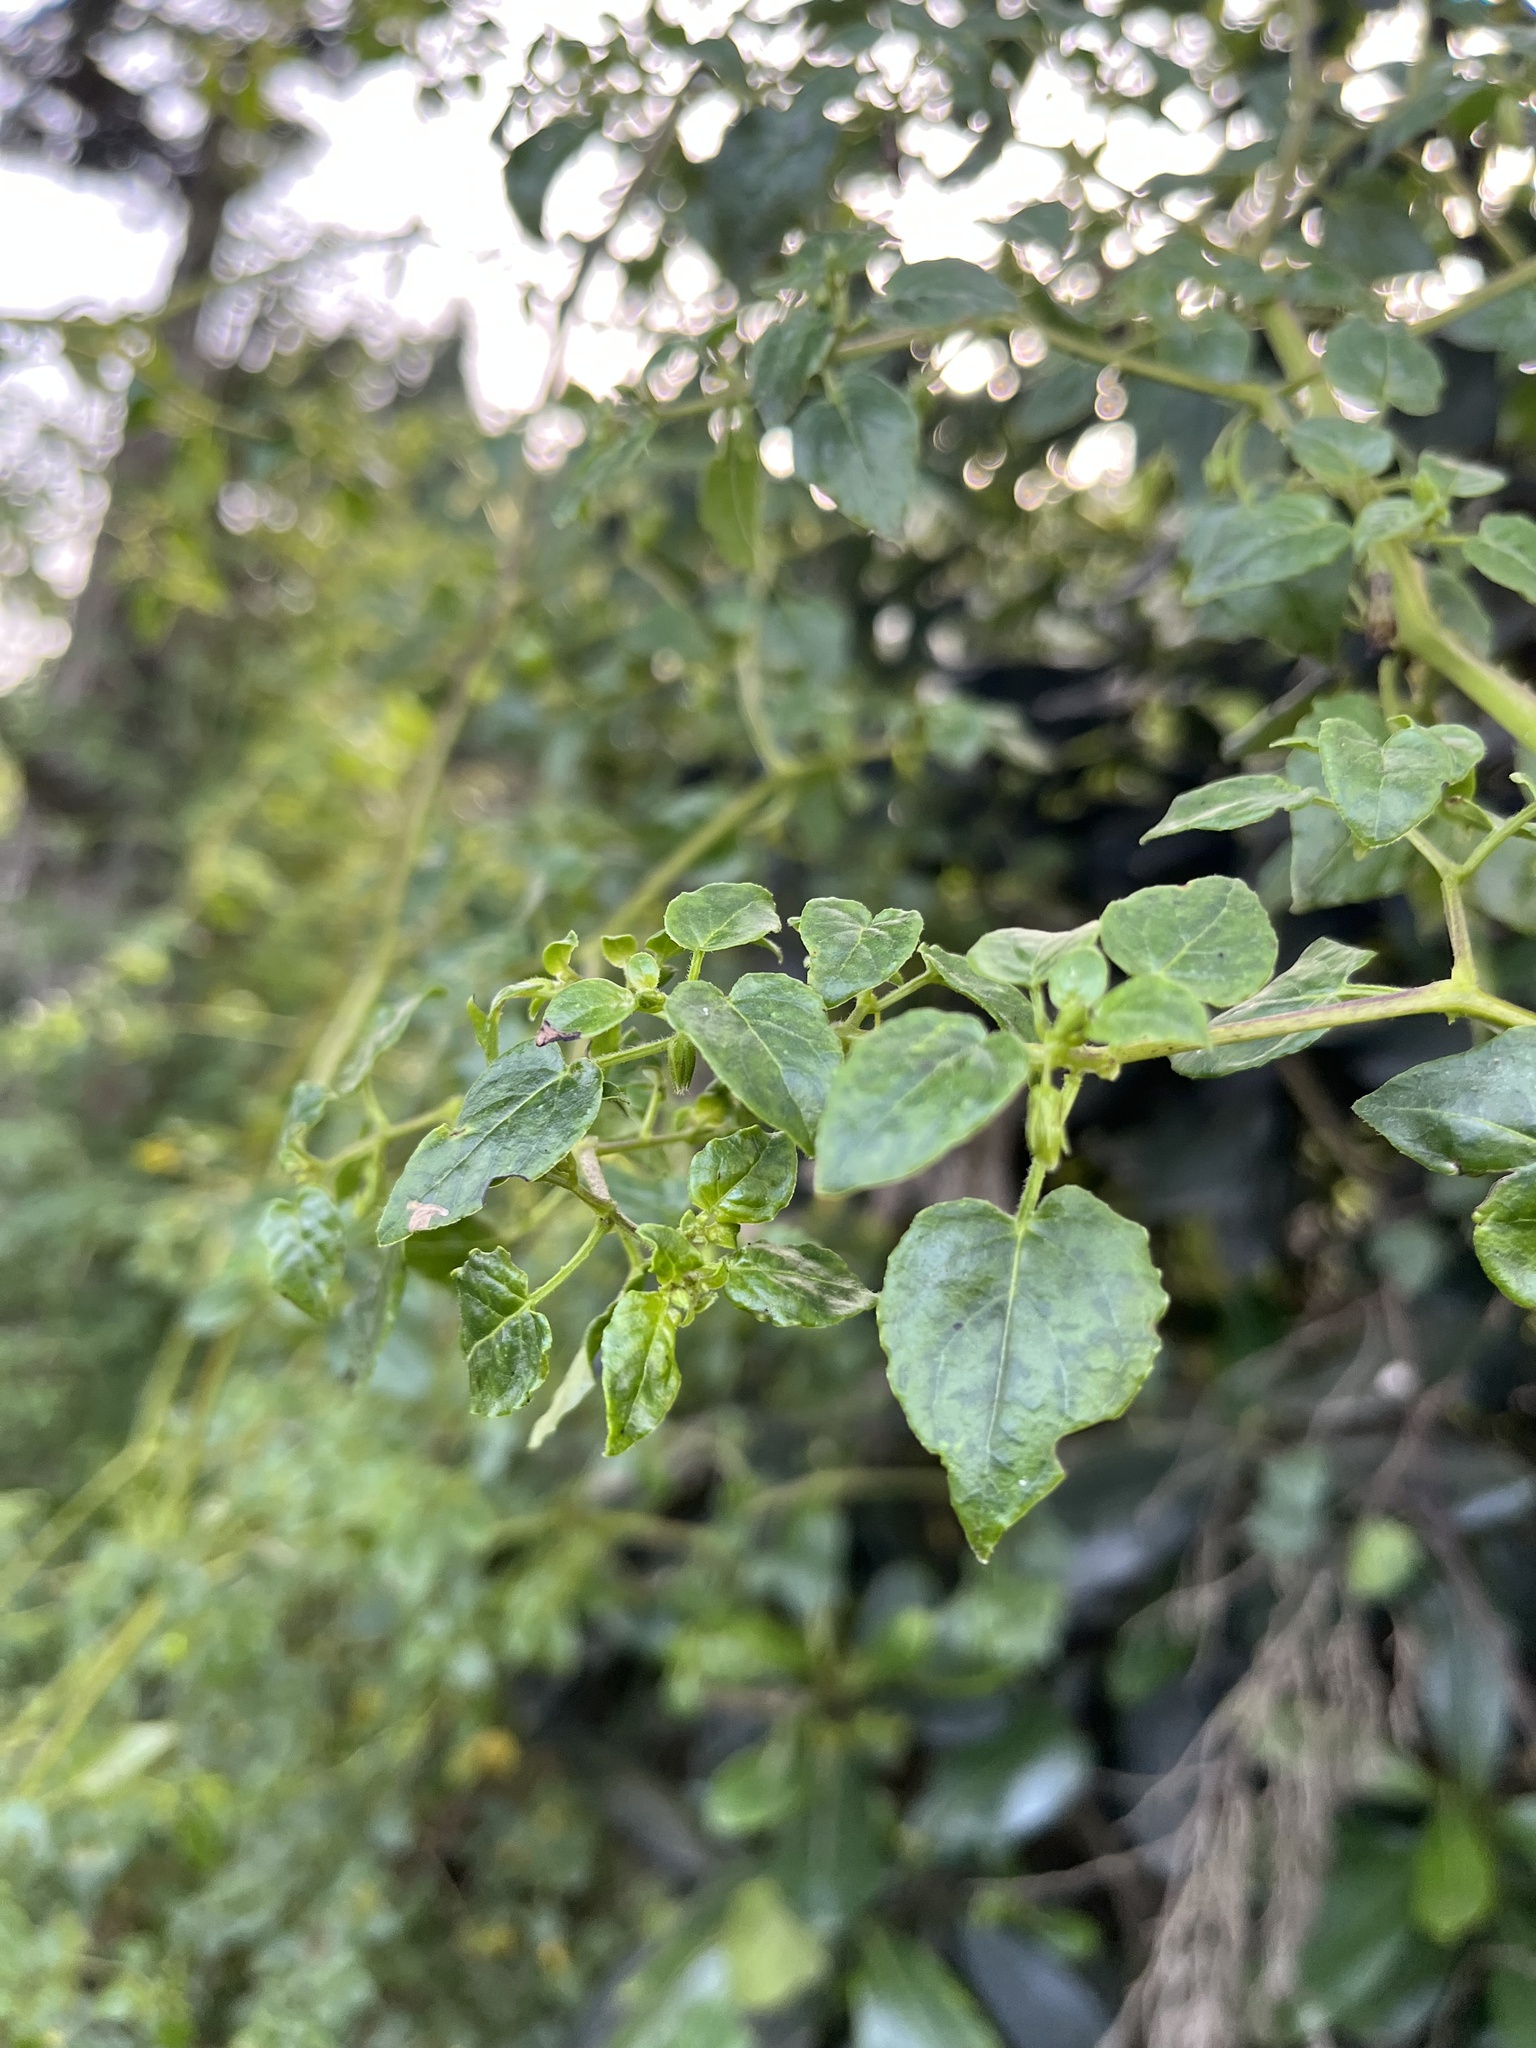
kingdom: Plantae
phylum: Tracheophyta
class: Magnoliopsida
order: Solanales
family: Solanaceae
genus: Salpichroa
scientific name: Salpichroa tristis
